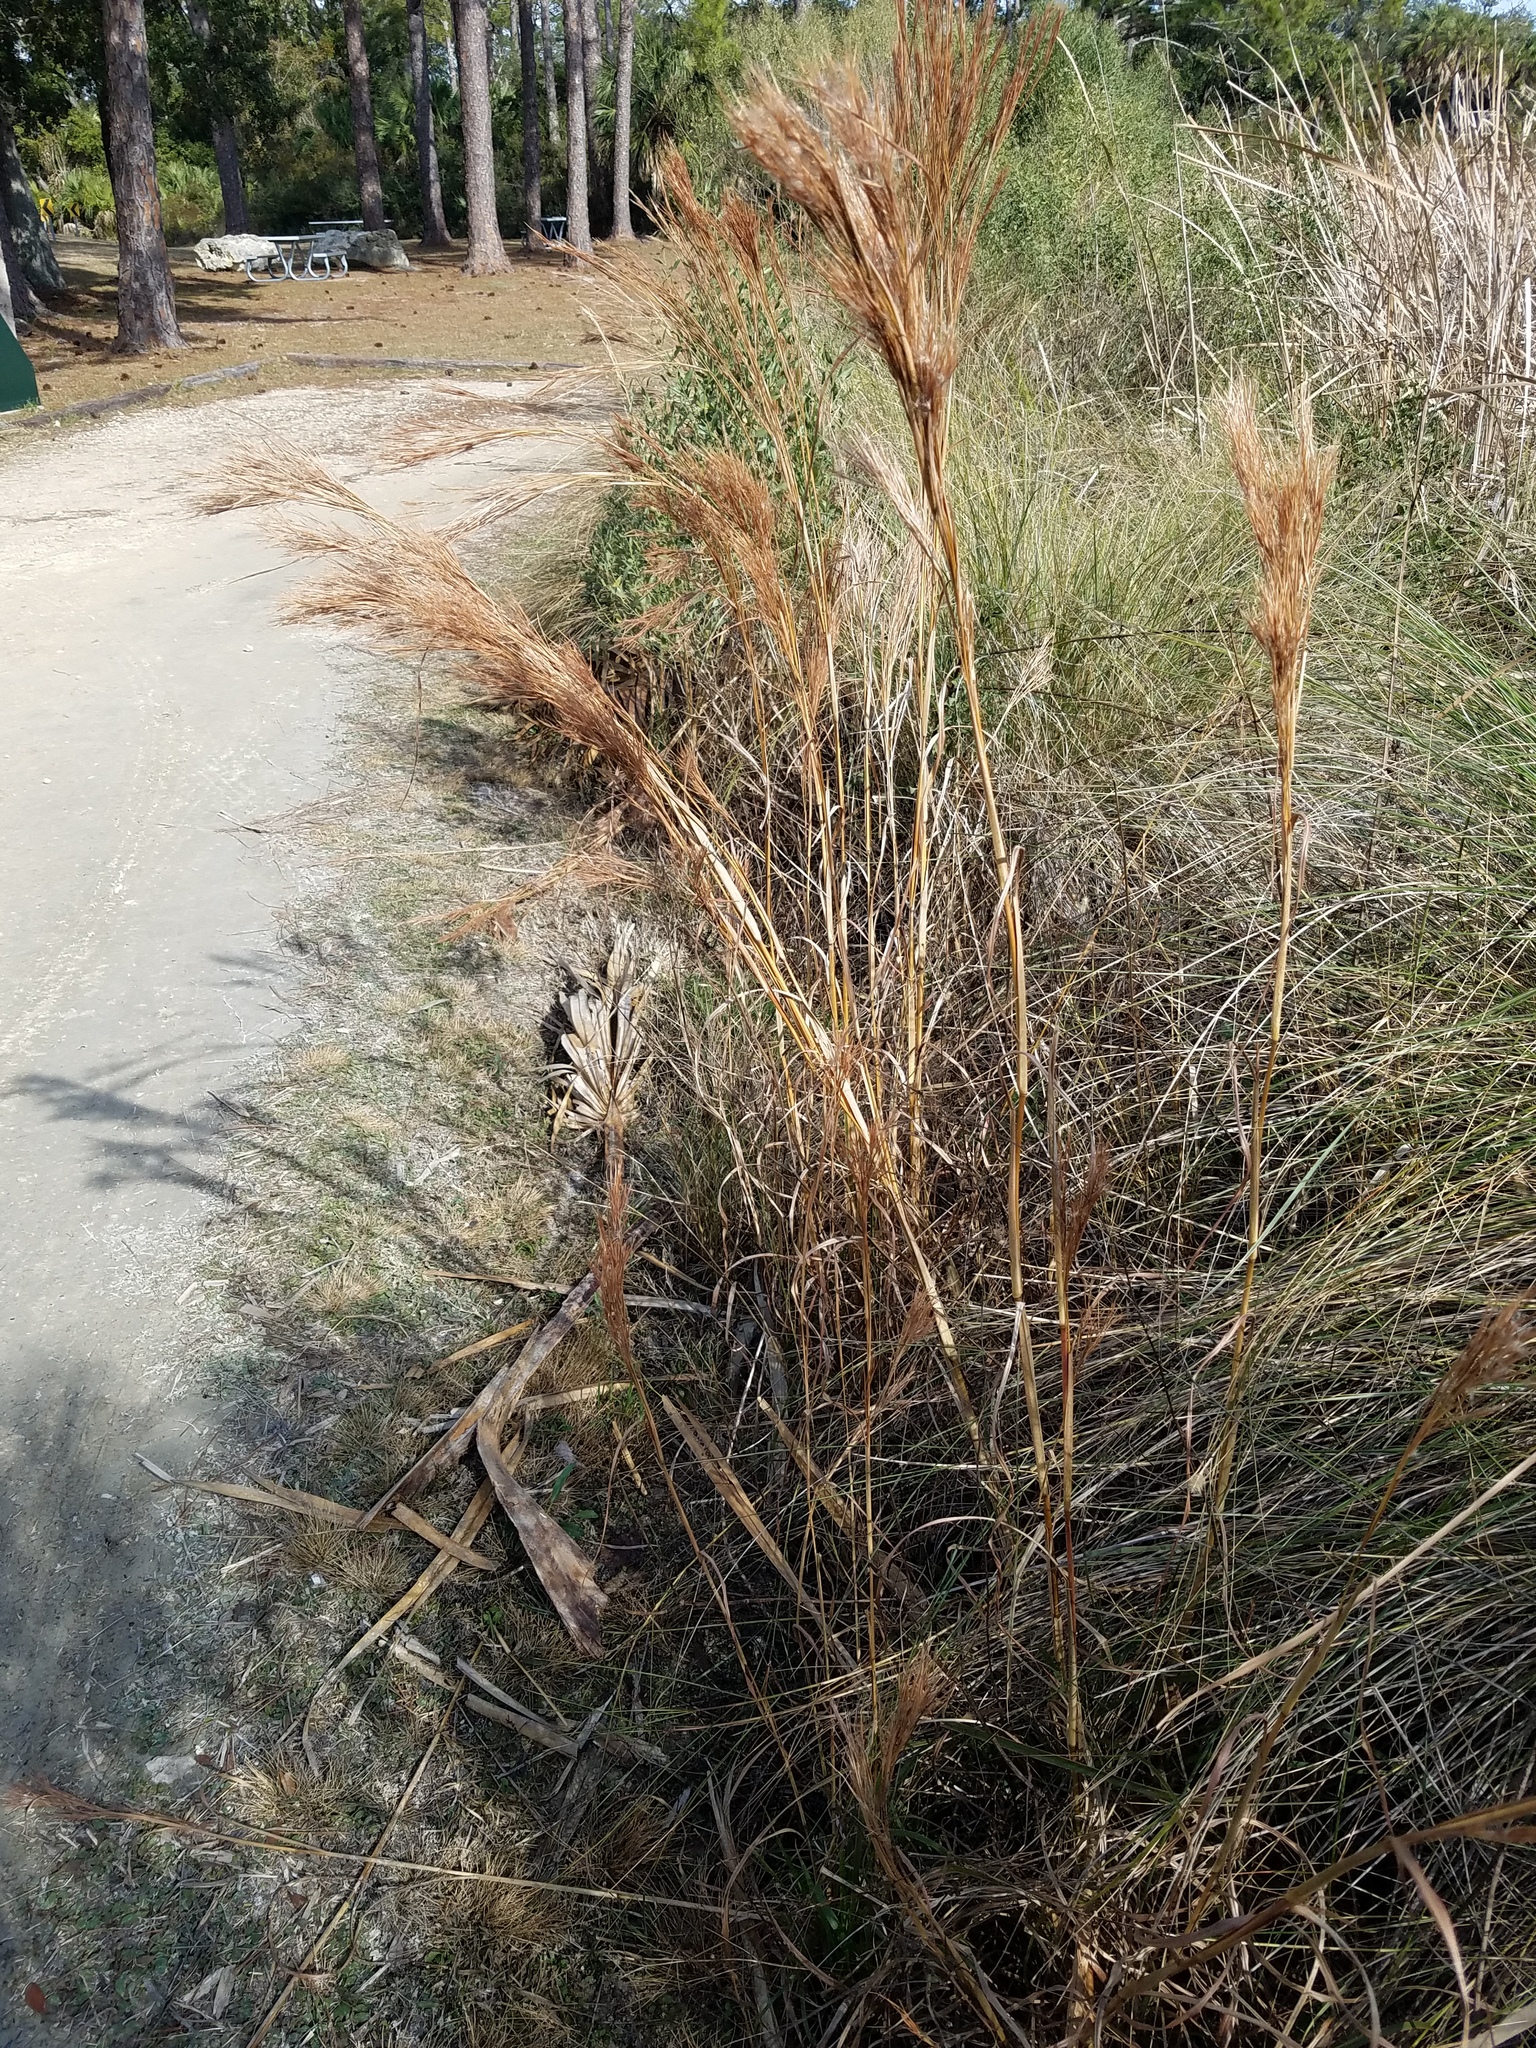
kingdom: Plantae
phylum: Tracheophyta
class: Liliopsida
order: Poales
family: Poaceae
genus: Andropogon
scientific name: Andropogon tenuispatheus
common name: Bushy bluestem
